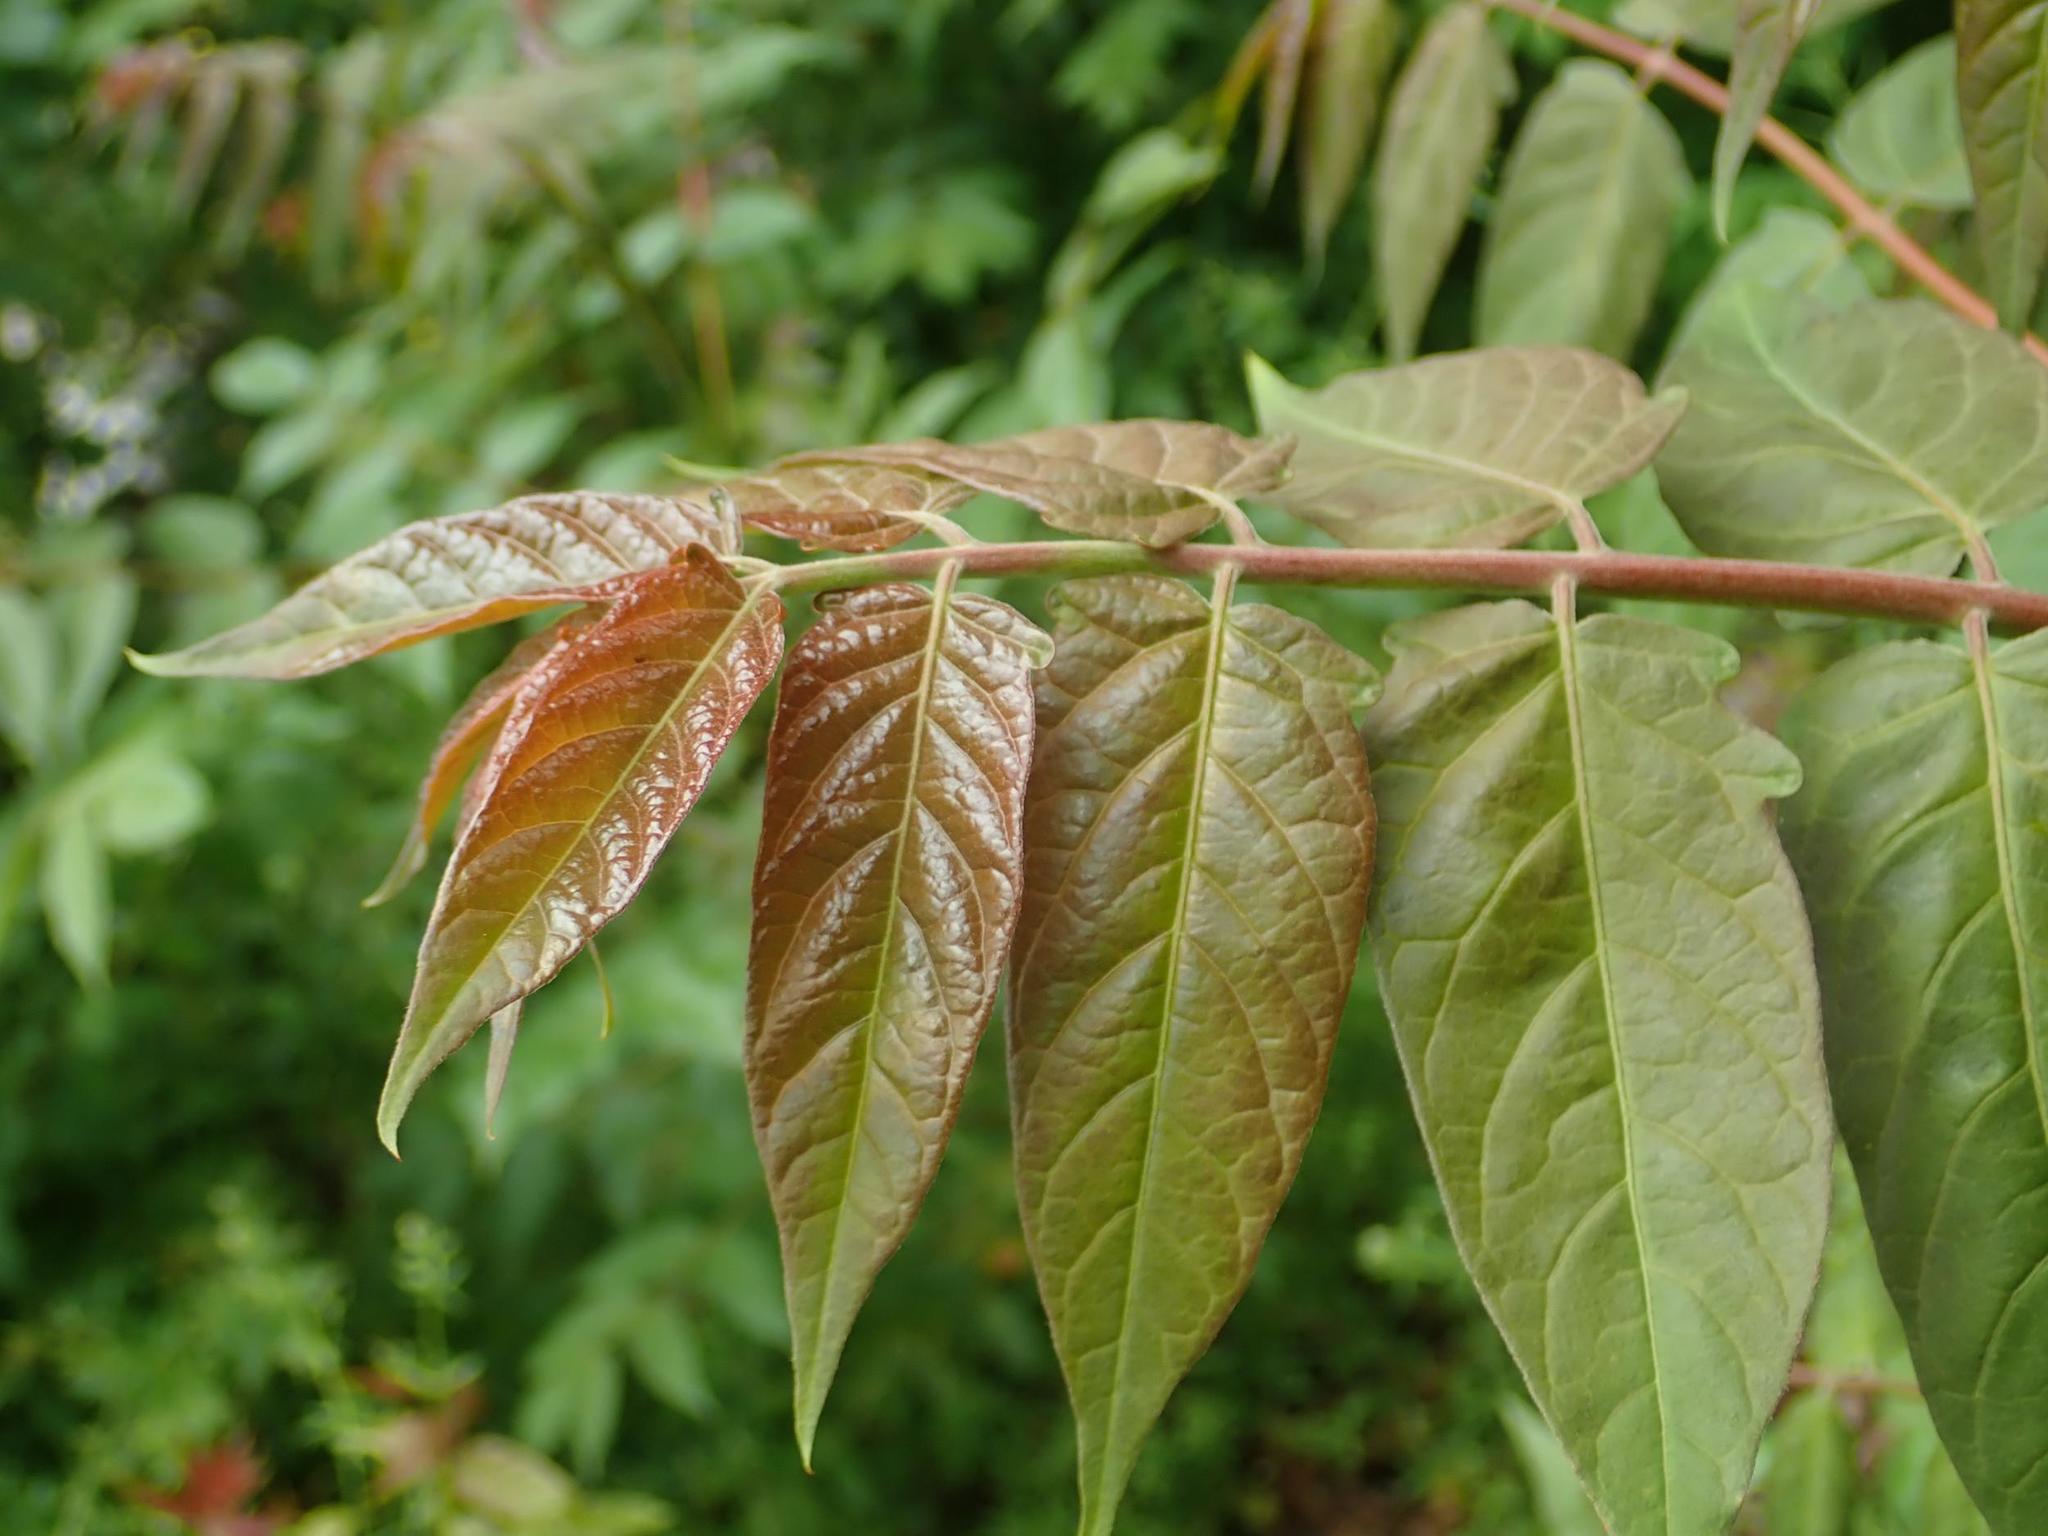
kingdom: Plantae
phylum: Tracheophyta
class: Magnoliopsida
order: Sapindales
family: Simaroubaceae
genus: Ailanthus
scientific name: Ailanthus altissima
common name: Tree-of-heaven
